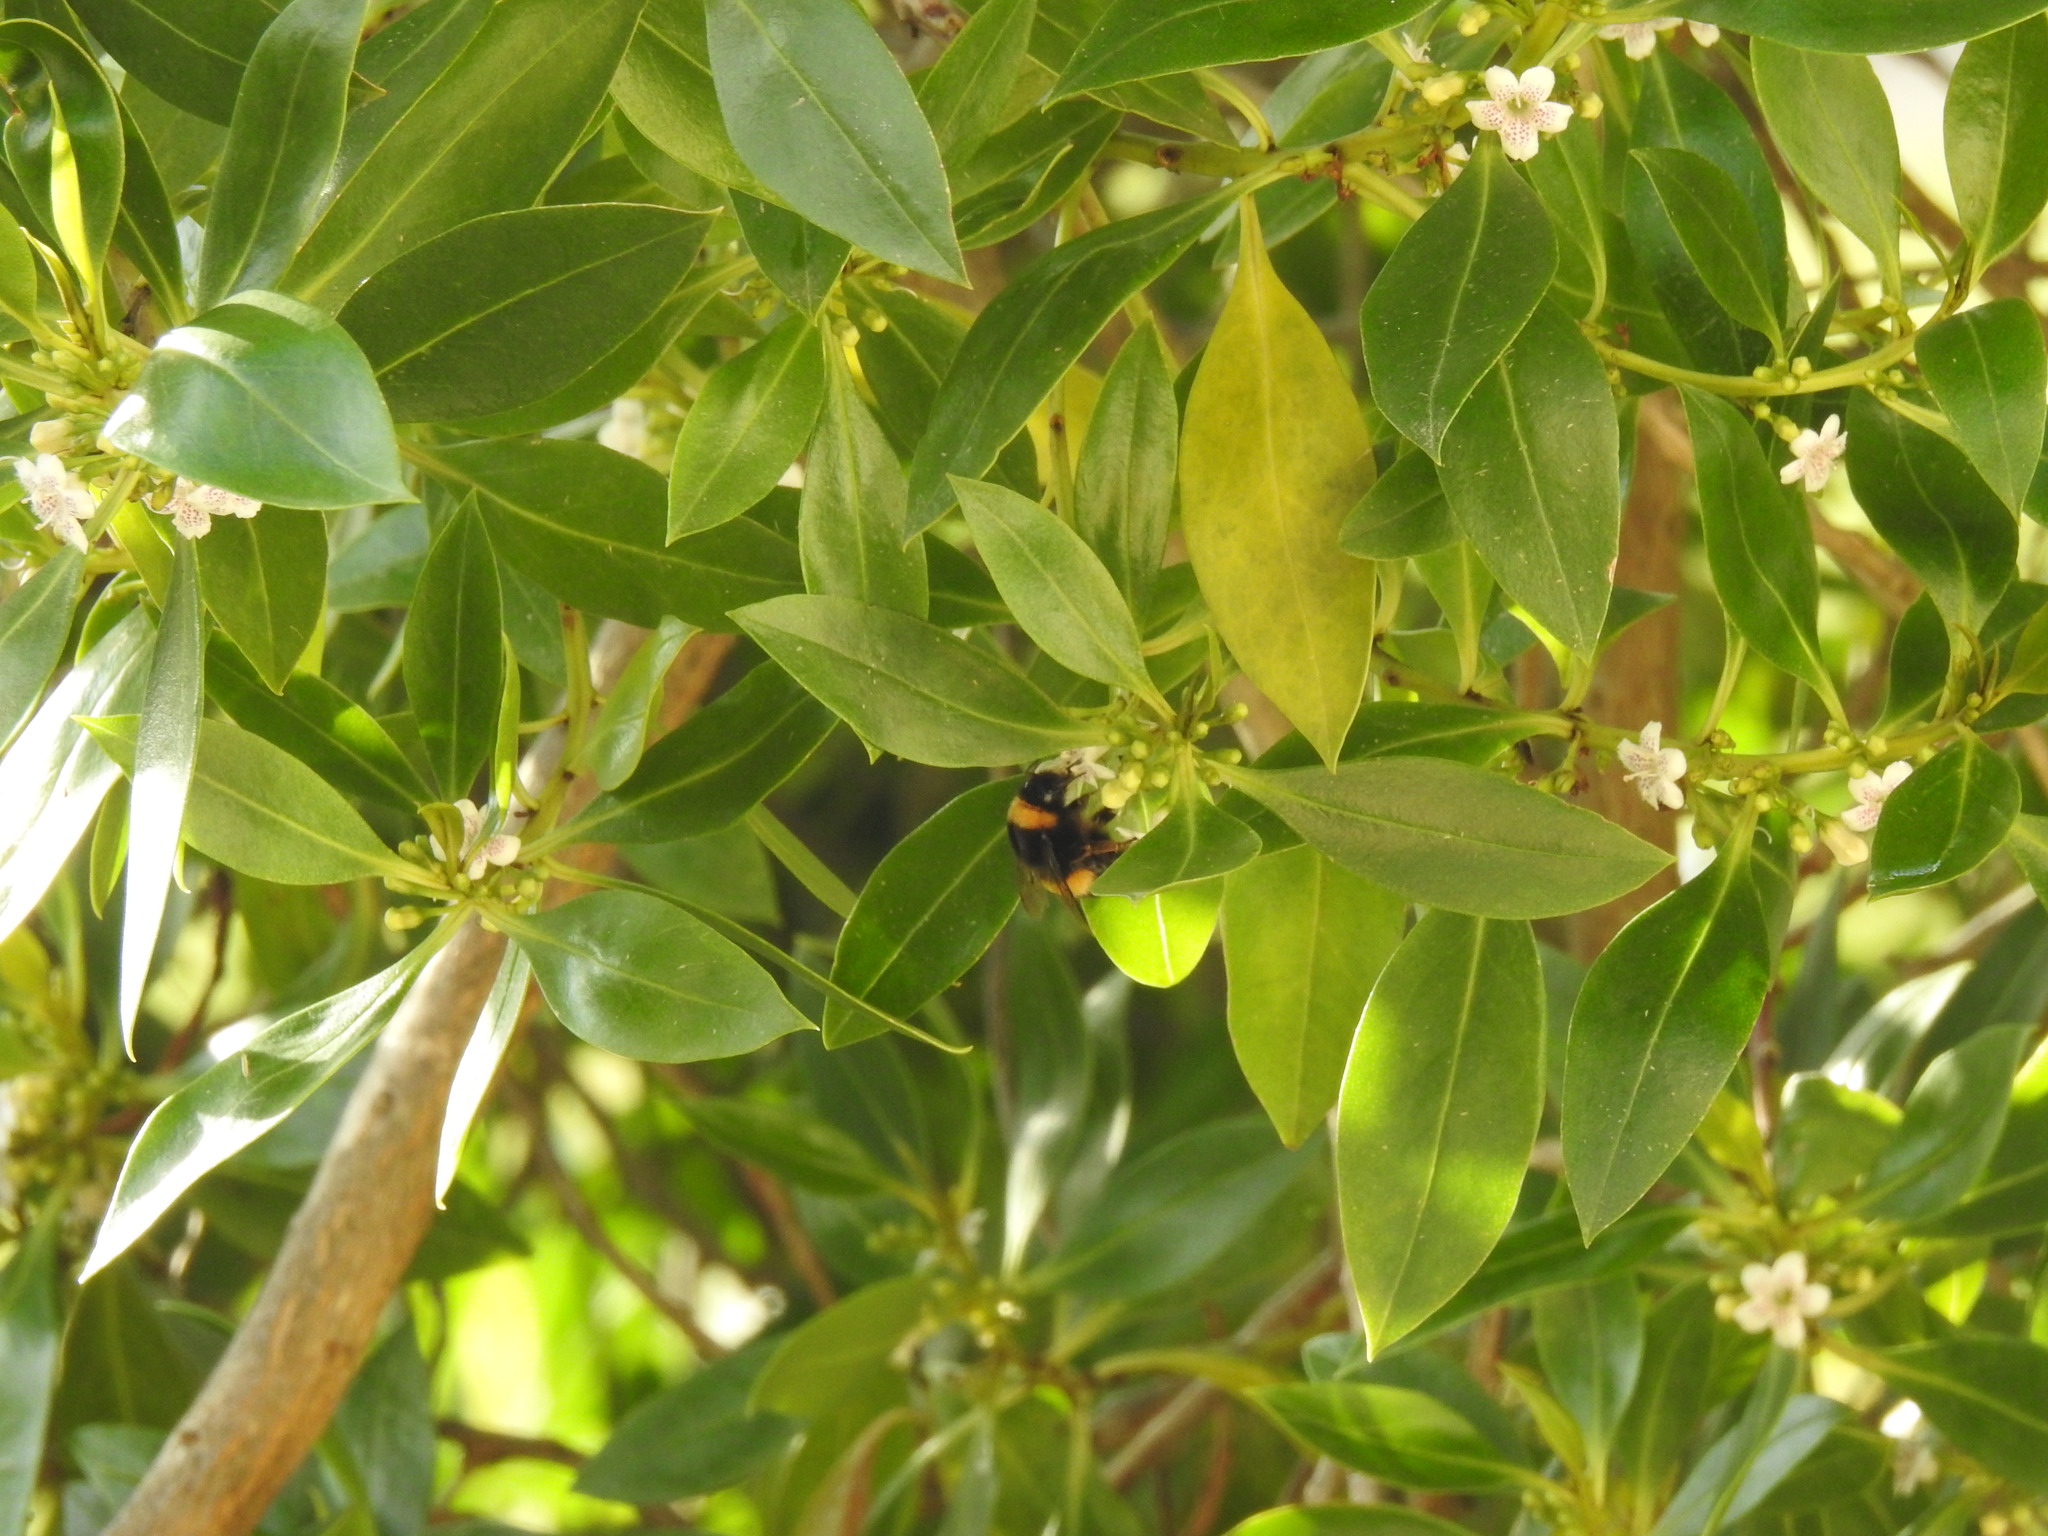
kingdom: Animalia
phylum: Arthropoda
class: Insecta
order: Hymenoptera
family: Apidae
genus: Bombus
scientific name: Bombus terrestris
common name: Buff-tailed bumblebee
